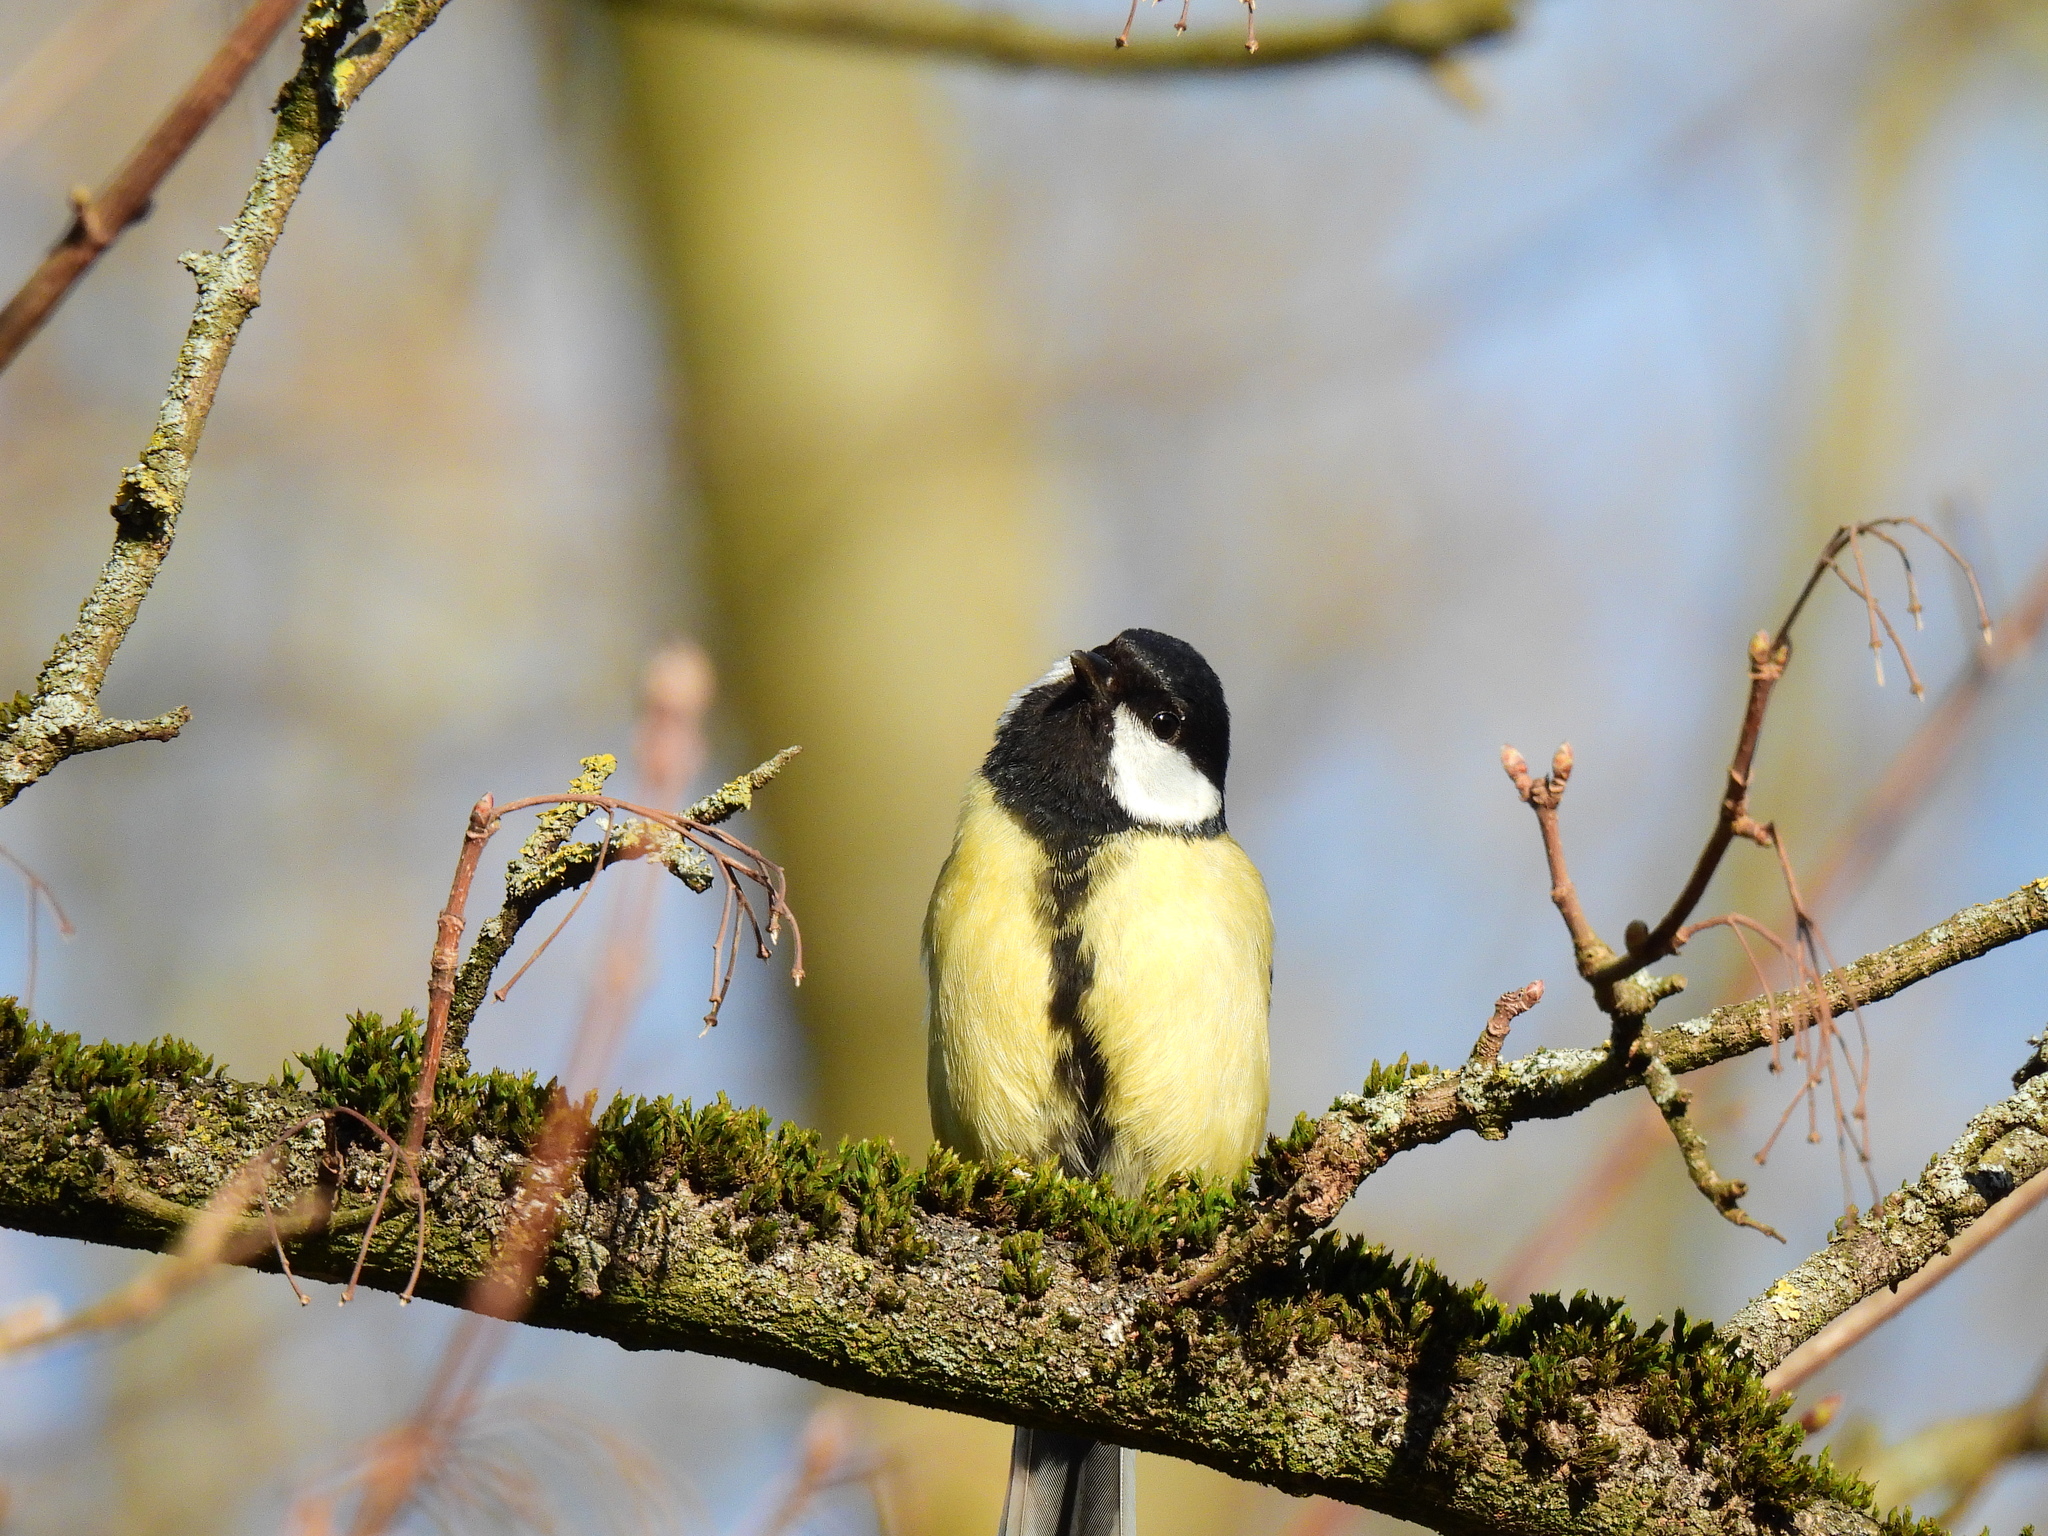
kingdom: Animalia
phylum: Chordata
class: Aves
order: Passeriformes
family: Paridae
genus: Parus
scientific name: Parus major
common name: Great tit
